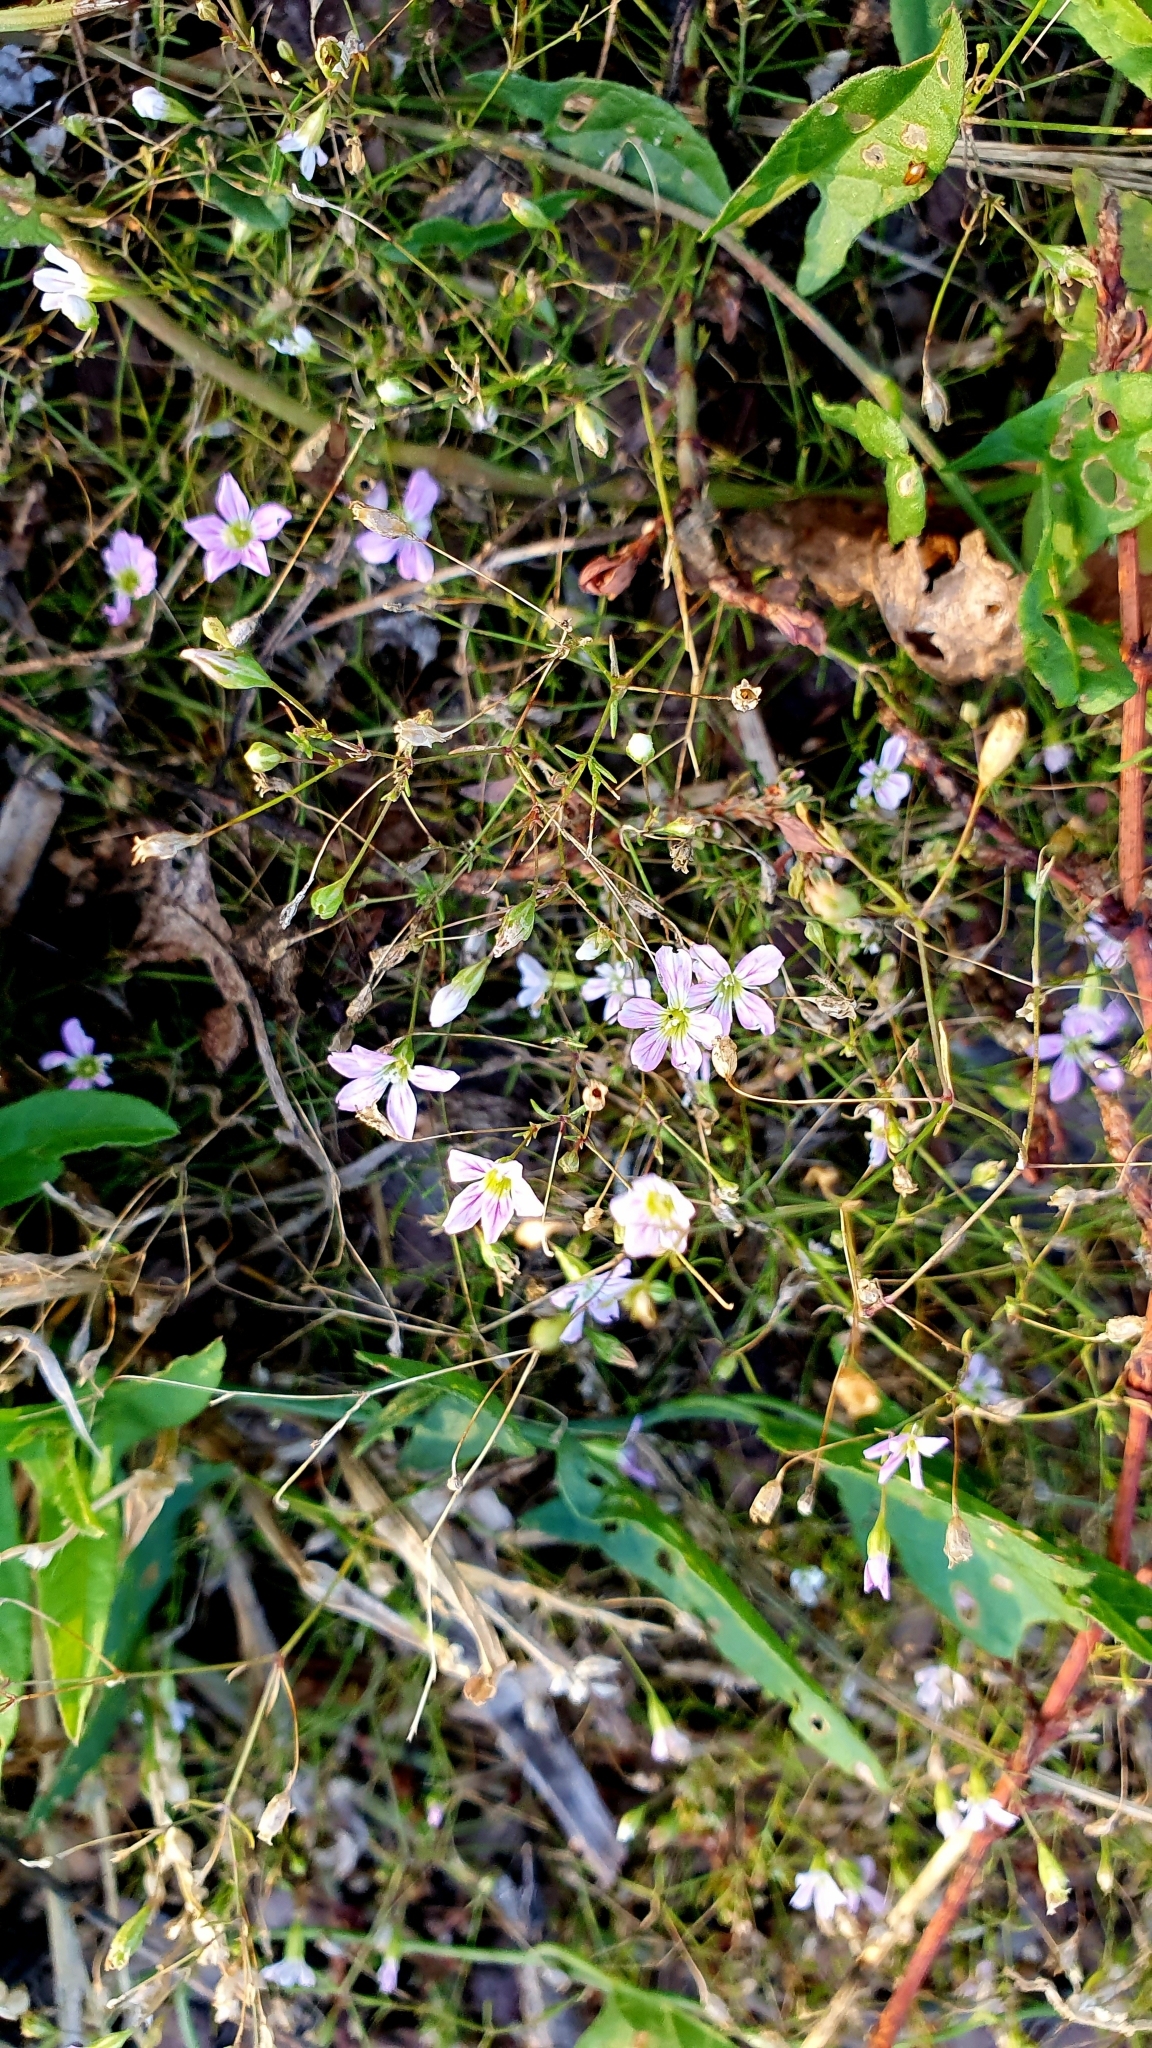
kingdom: Plantae
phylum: Tracheophyta
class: Magnoliopsida
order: Caryophyllales
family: Caryophyllaceae
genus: Psammophiliella
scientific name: Psammophiliella muralis
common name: Cushion baby's-breath
